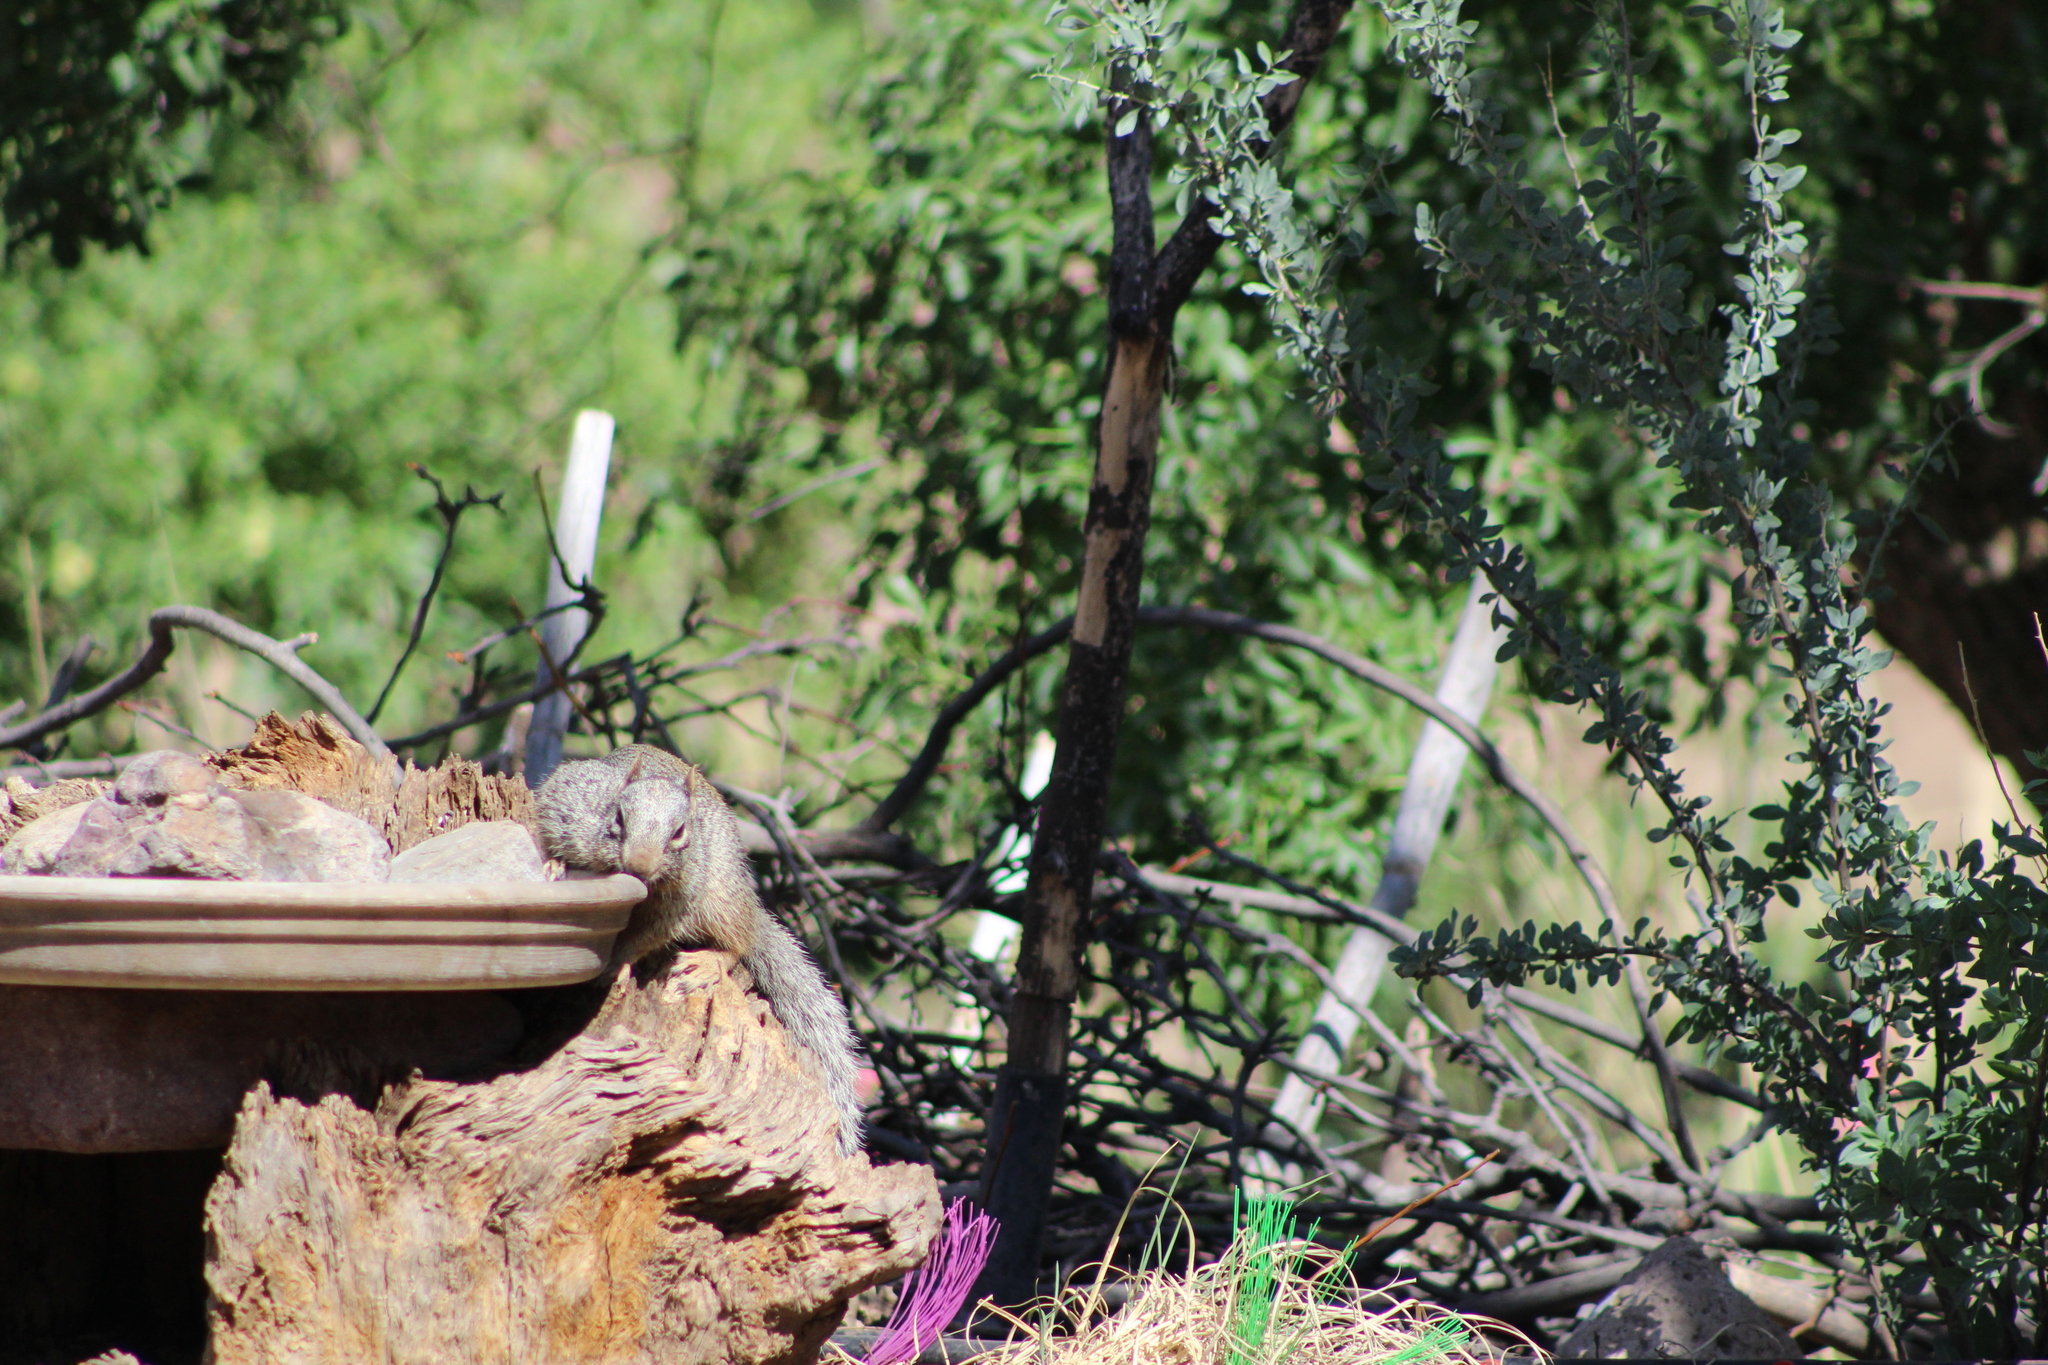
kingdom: Animalia
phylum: Chordata
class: Mammalia
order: Rodentia
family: Sciuridae
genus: Otospermophilus
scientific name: Otospermophilus variegatus
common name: Rock squirrel
